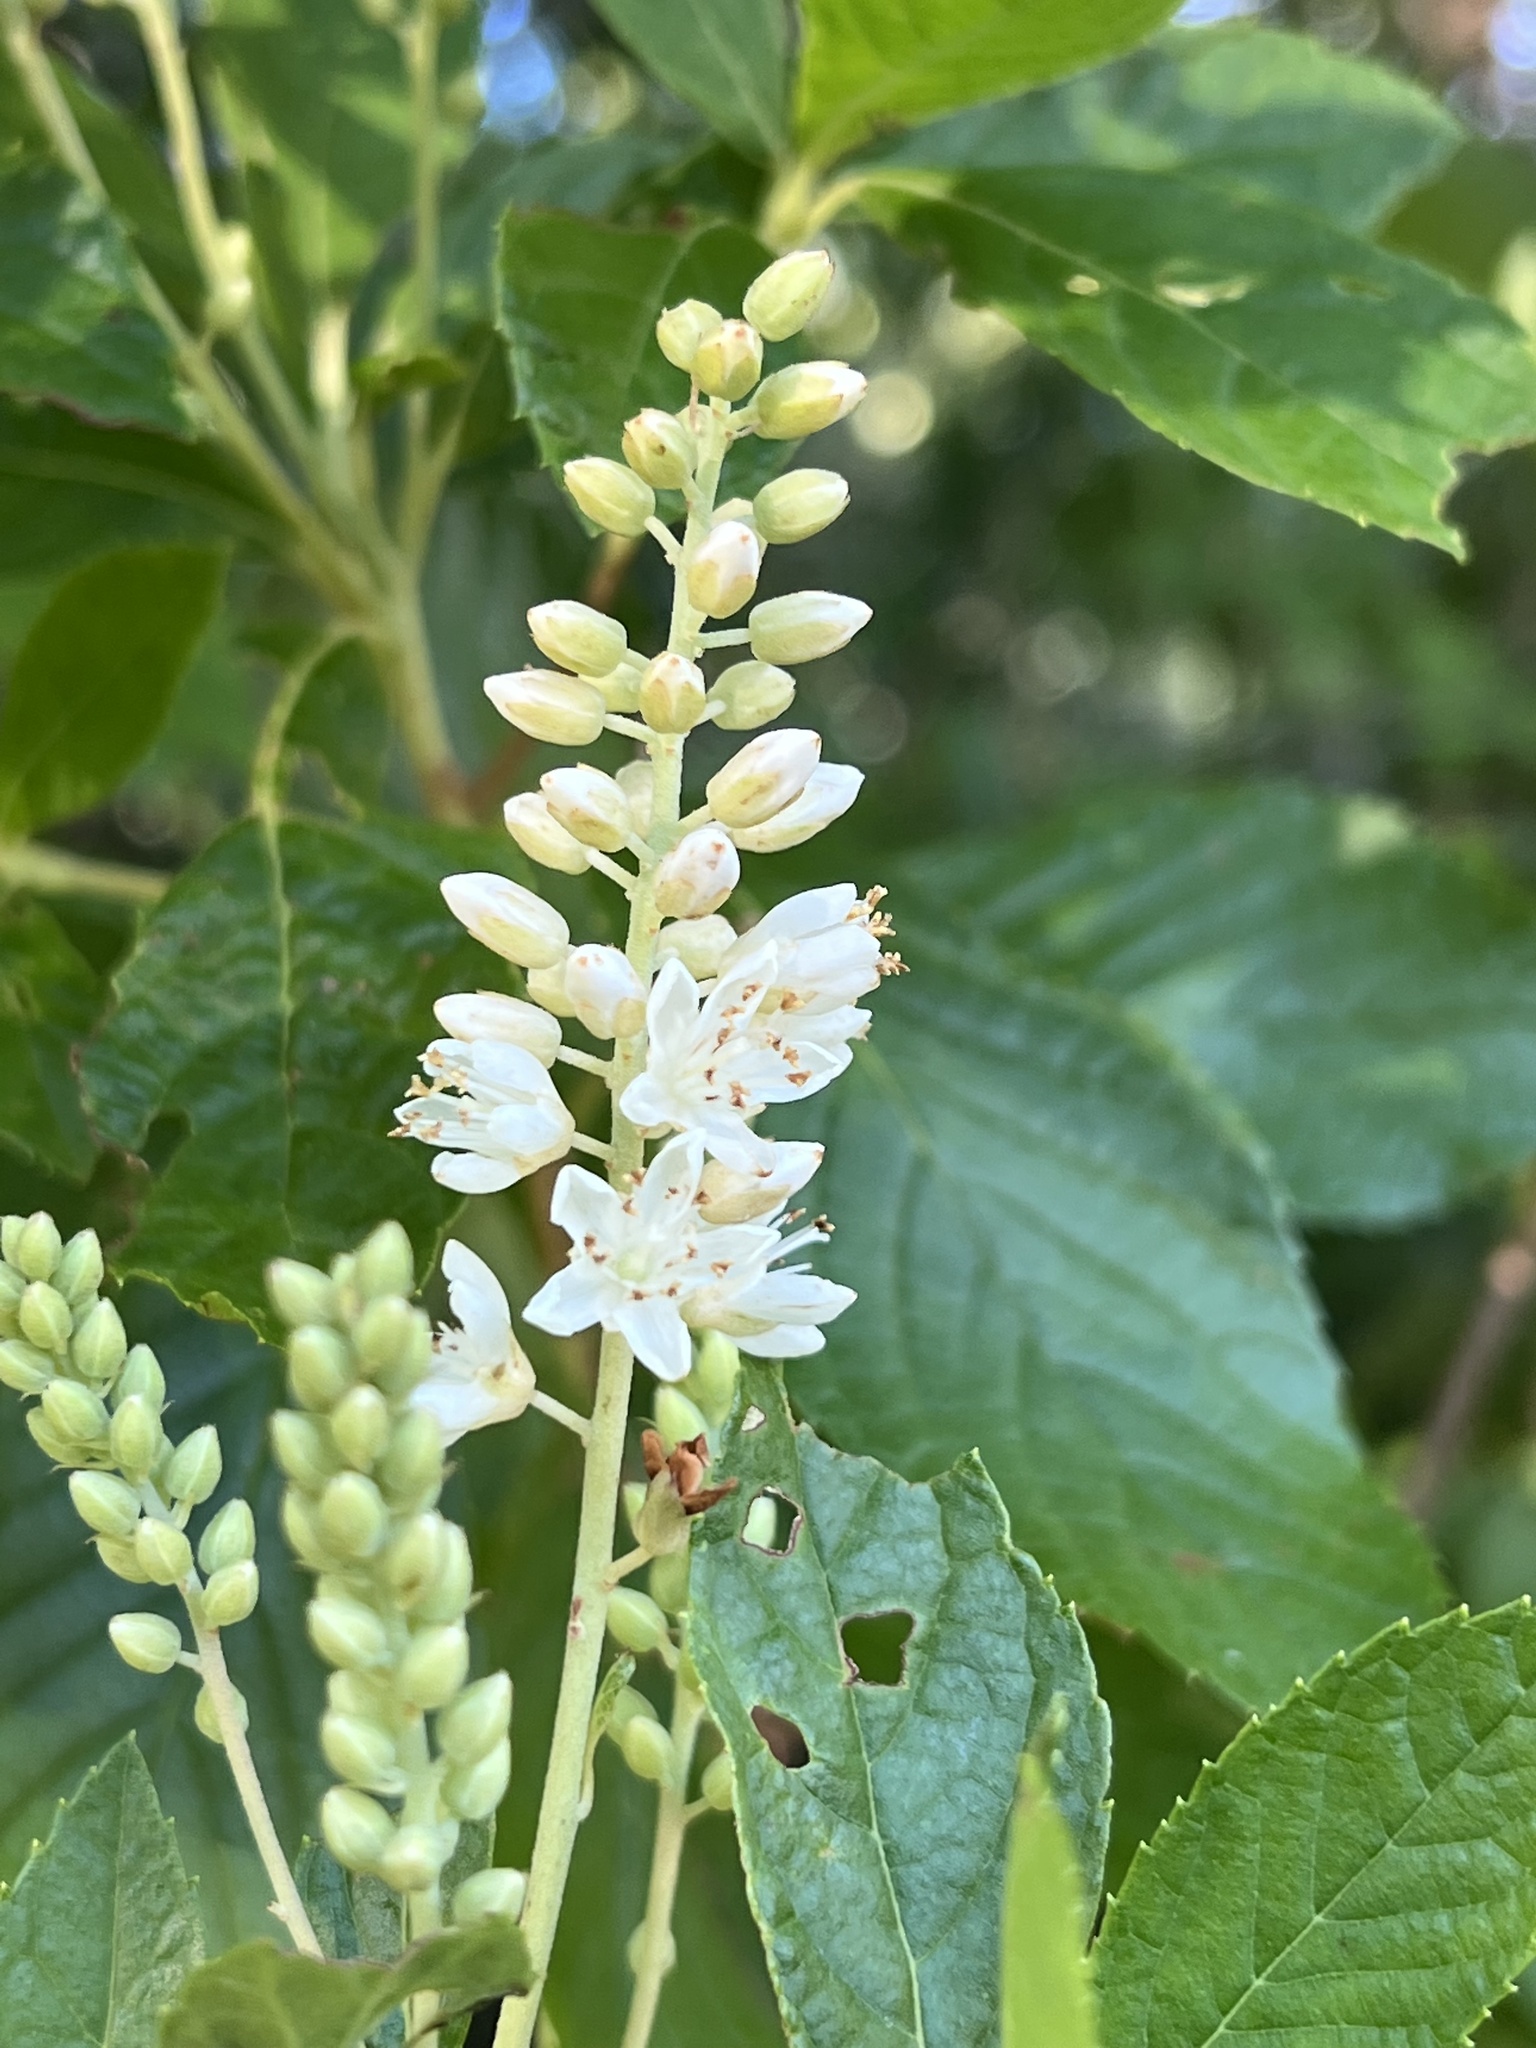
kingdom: Plantae
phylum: Tracheophyta
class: Magnoliopsida
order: Ericales
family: Clethraceae
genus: Clethra
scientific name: Clethra alnifolia
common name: Sweet pepperbush
